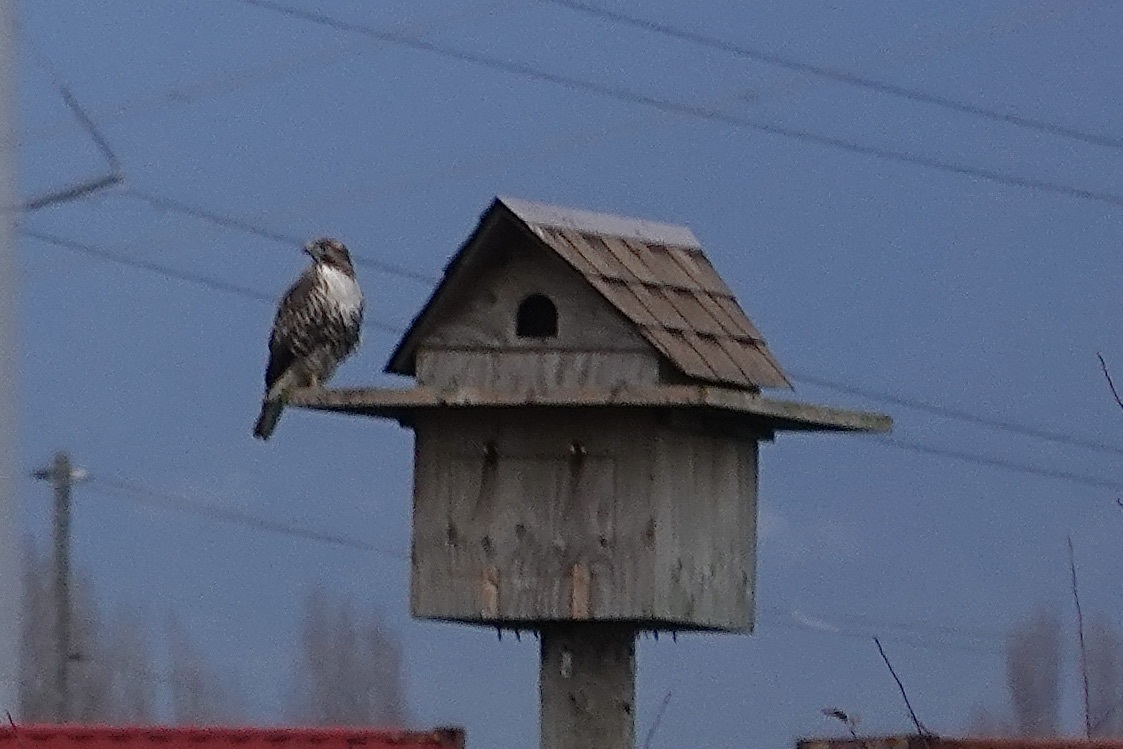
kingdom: Animalia
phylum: Chordata
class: Aves
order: Accipitriformes
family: Accipitridae
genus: Buteo
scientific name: Buteo jamaicensis
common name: Red-tailed hawk
